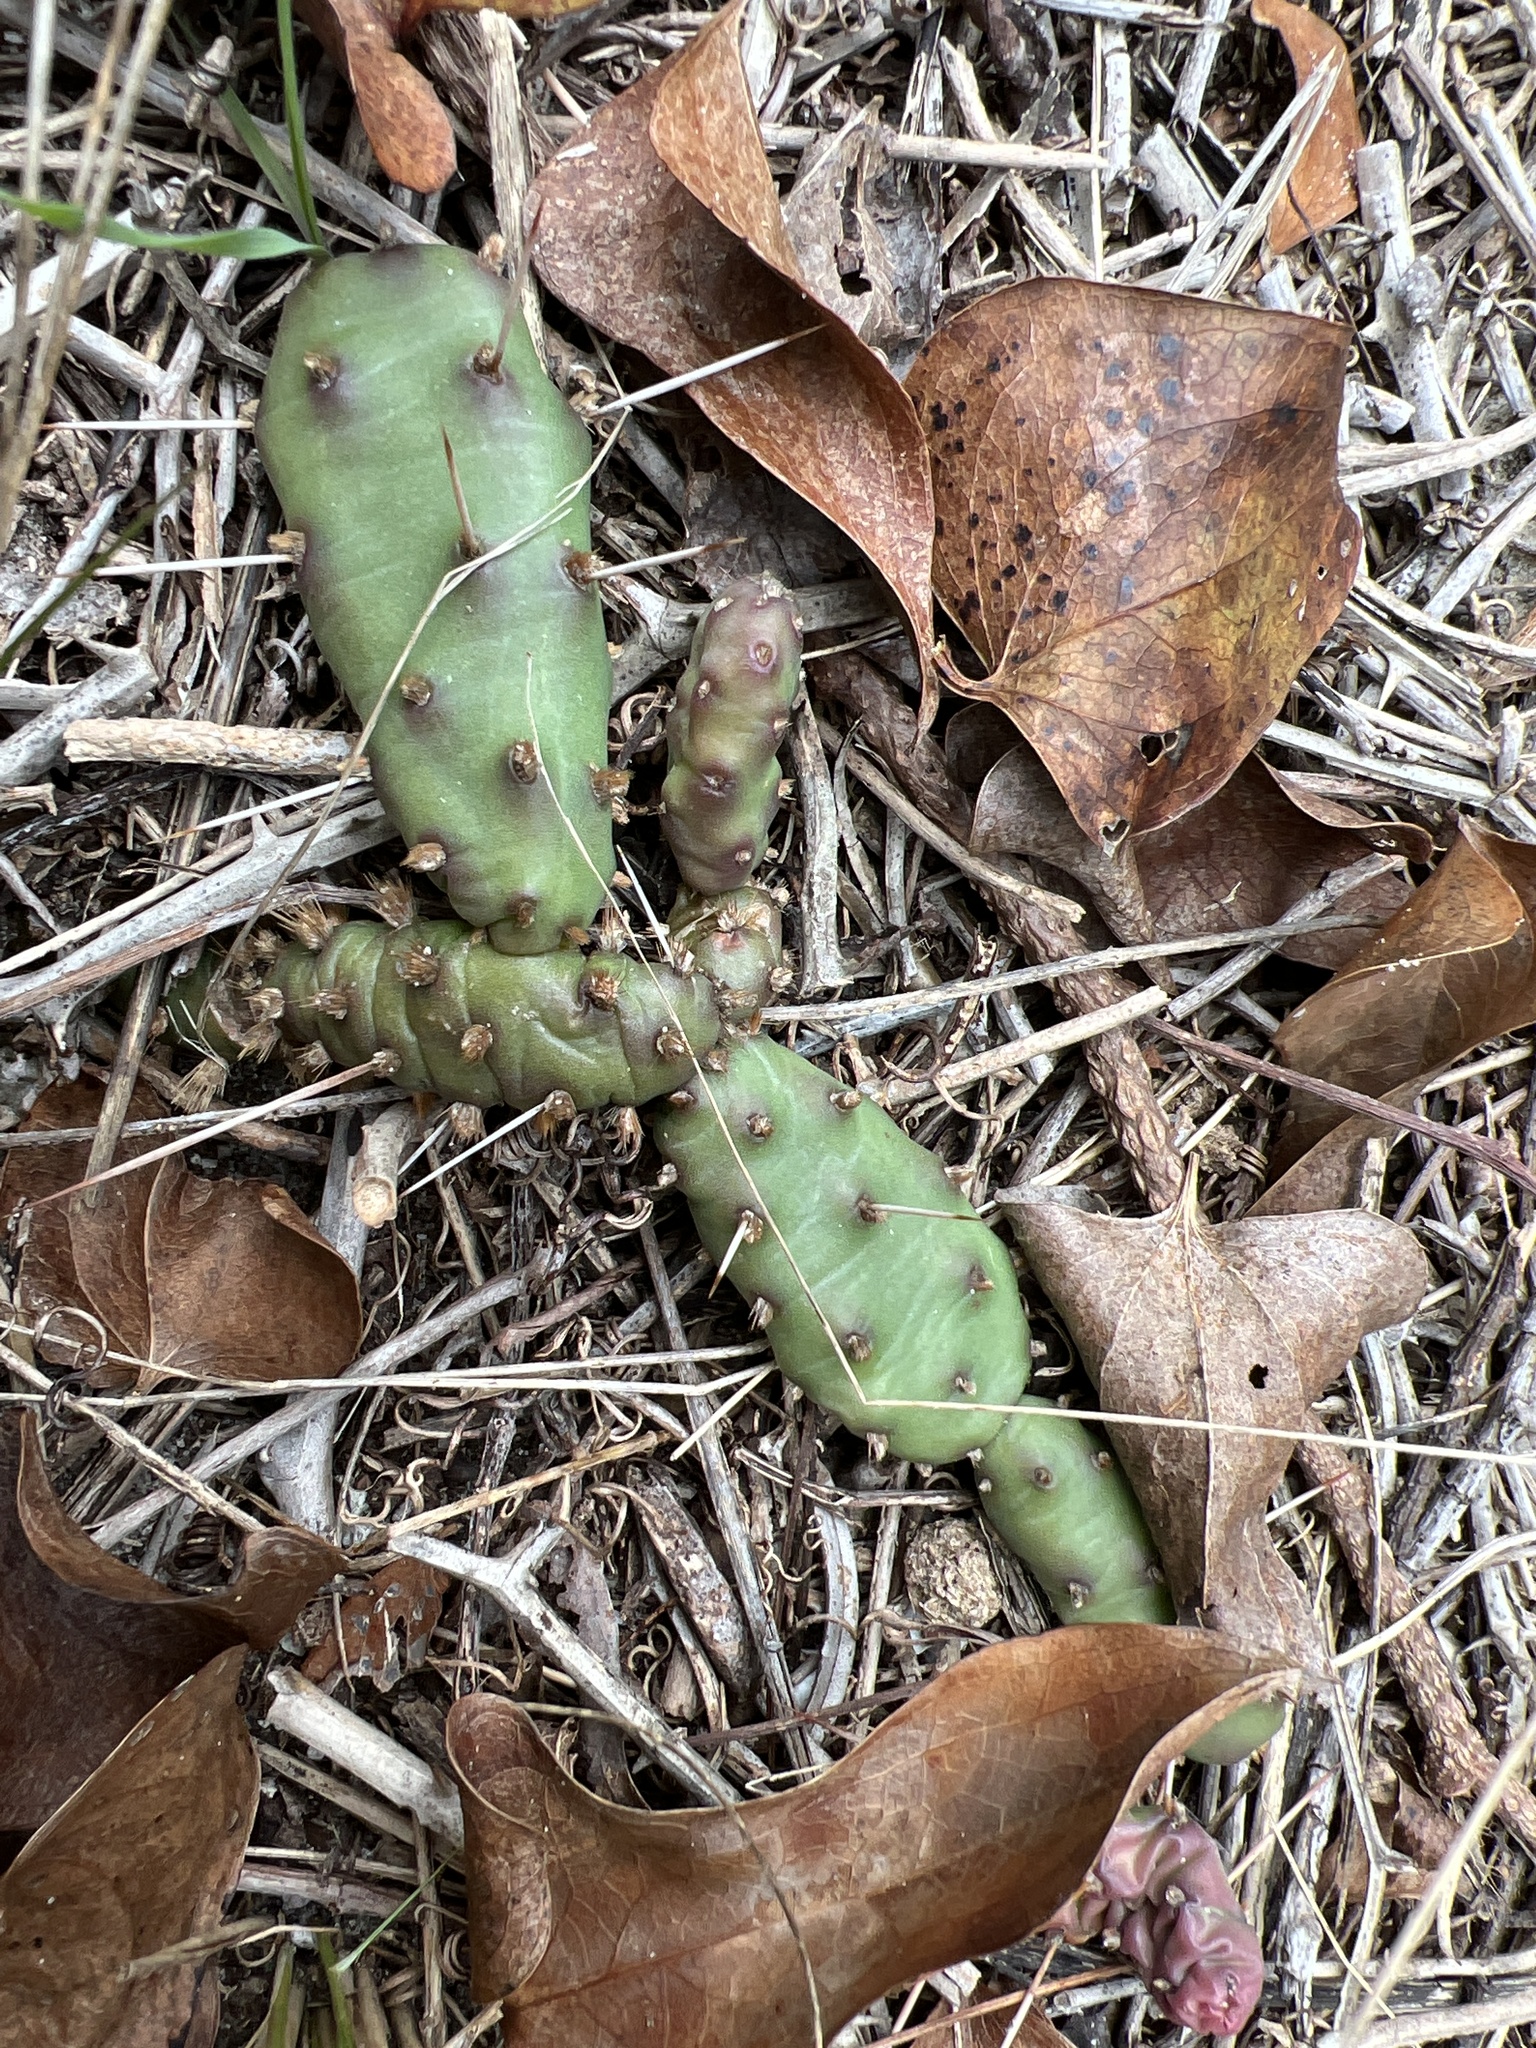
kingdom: Plantae
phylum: Tracheophyta
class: Magnoliopsida
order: Caryophyllales
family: Cactaceae
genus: Opuntia
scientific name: Opuntia drummondii
